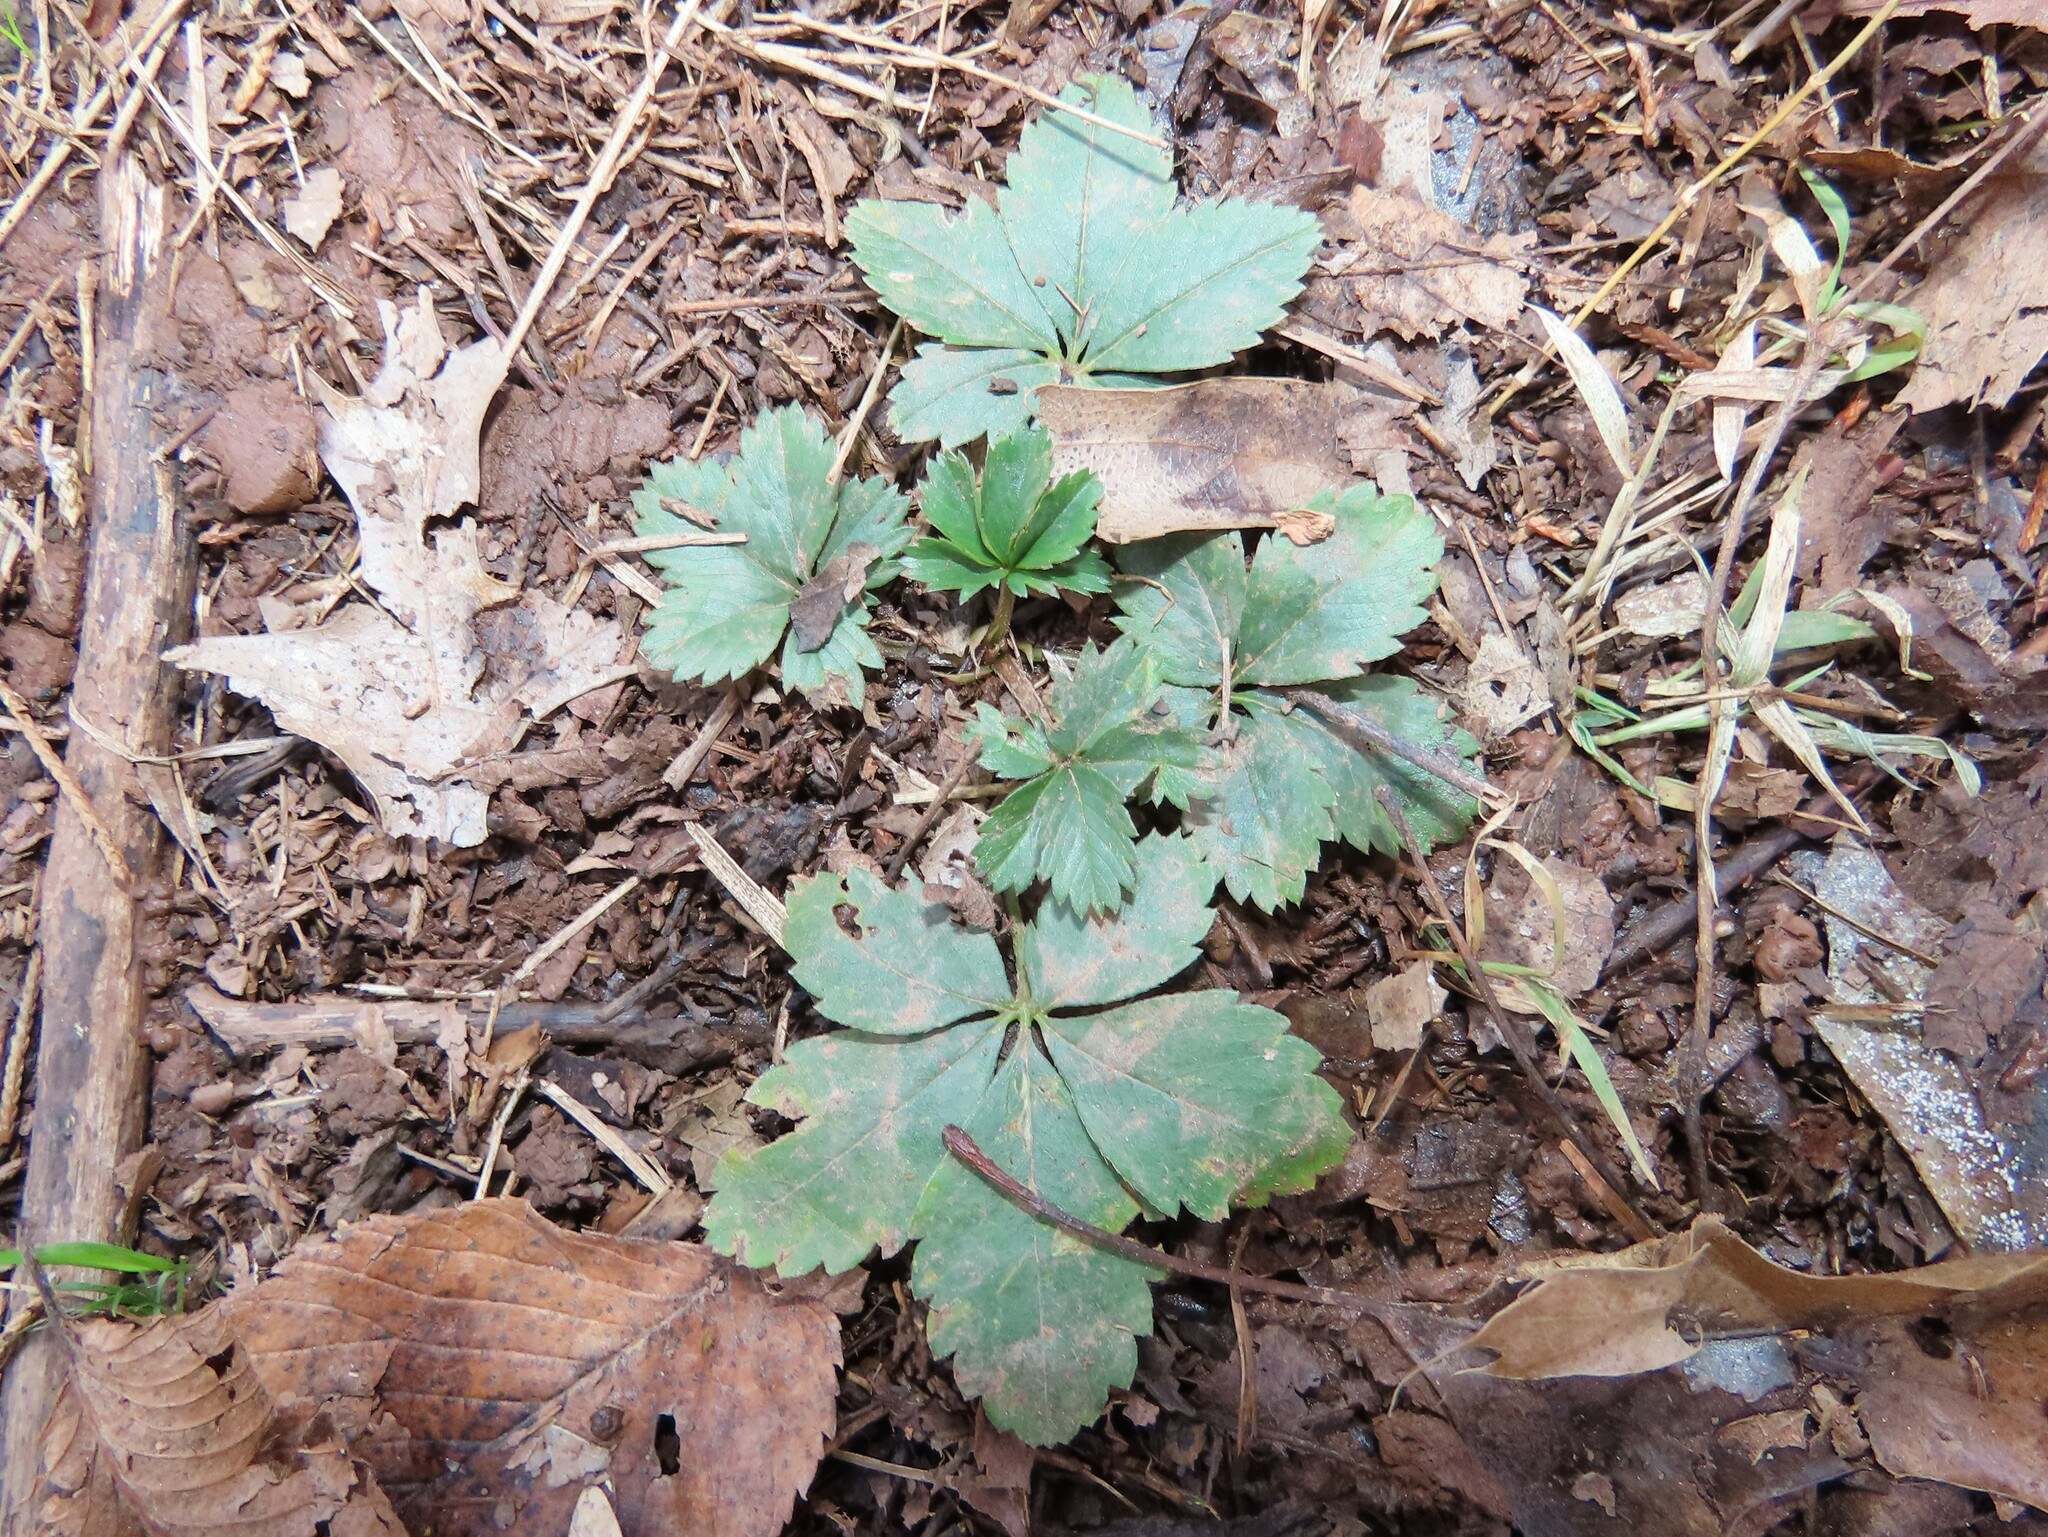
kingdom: Plantae
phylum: Tracheophyta
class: Magnoliopsida
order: Rosales
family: Rosaceae
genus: Potentilla
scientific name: Potentilla canadensis
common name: Canada cinquefoil
